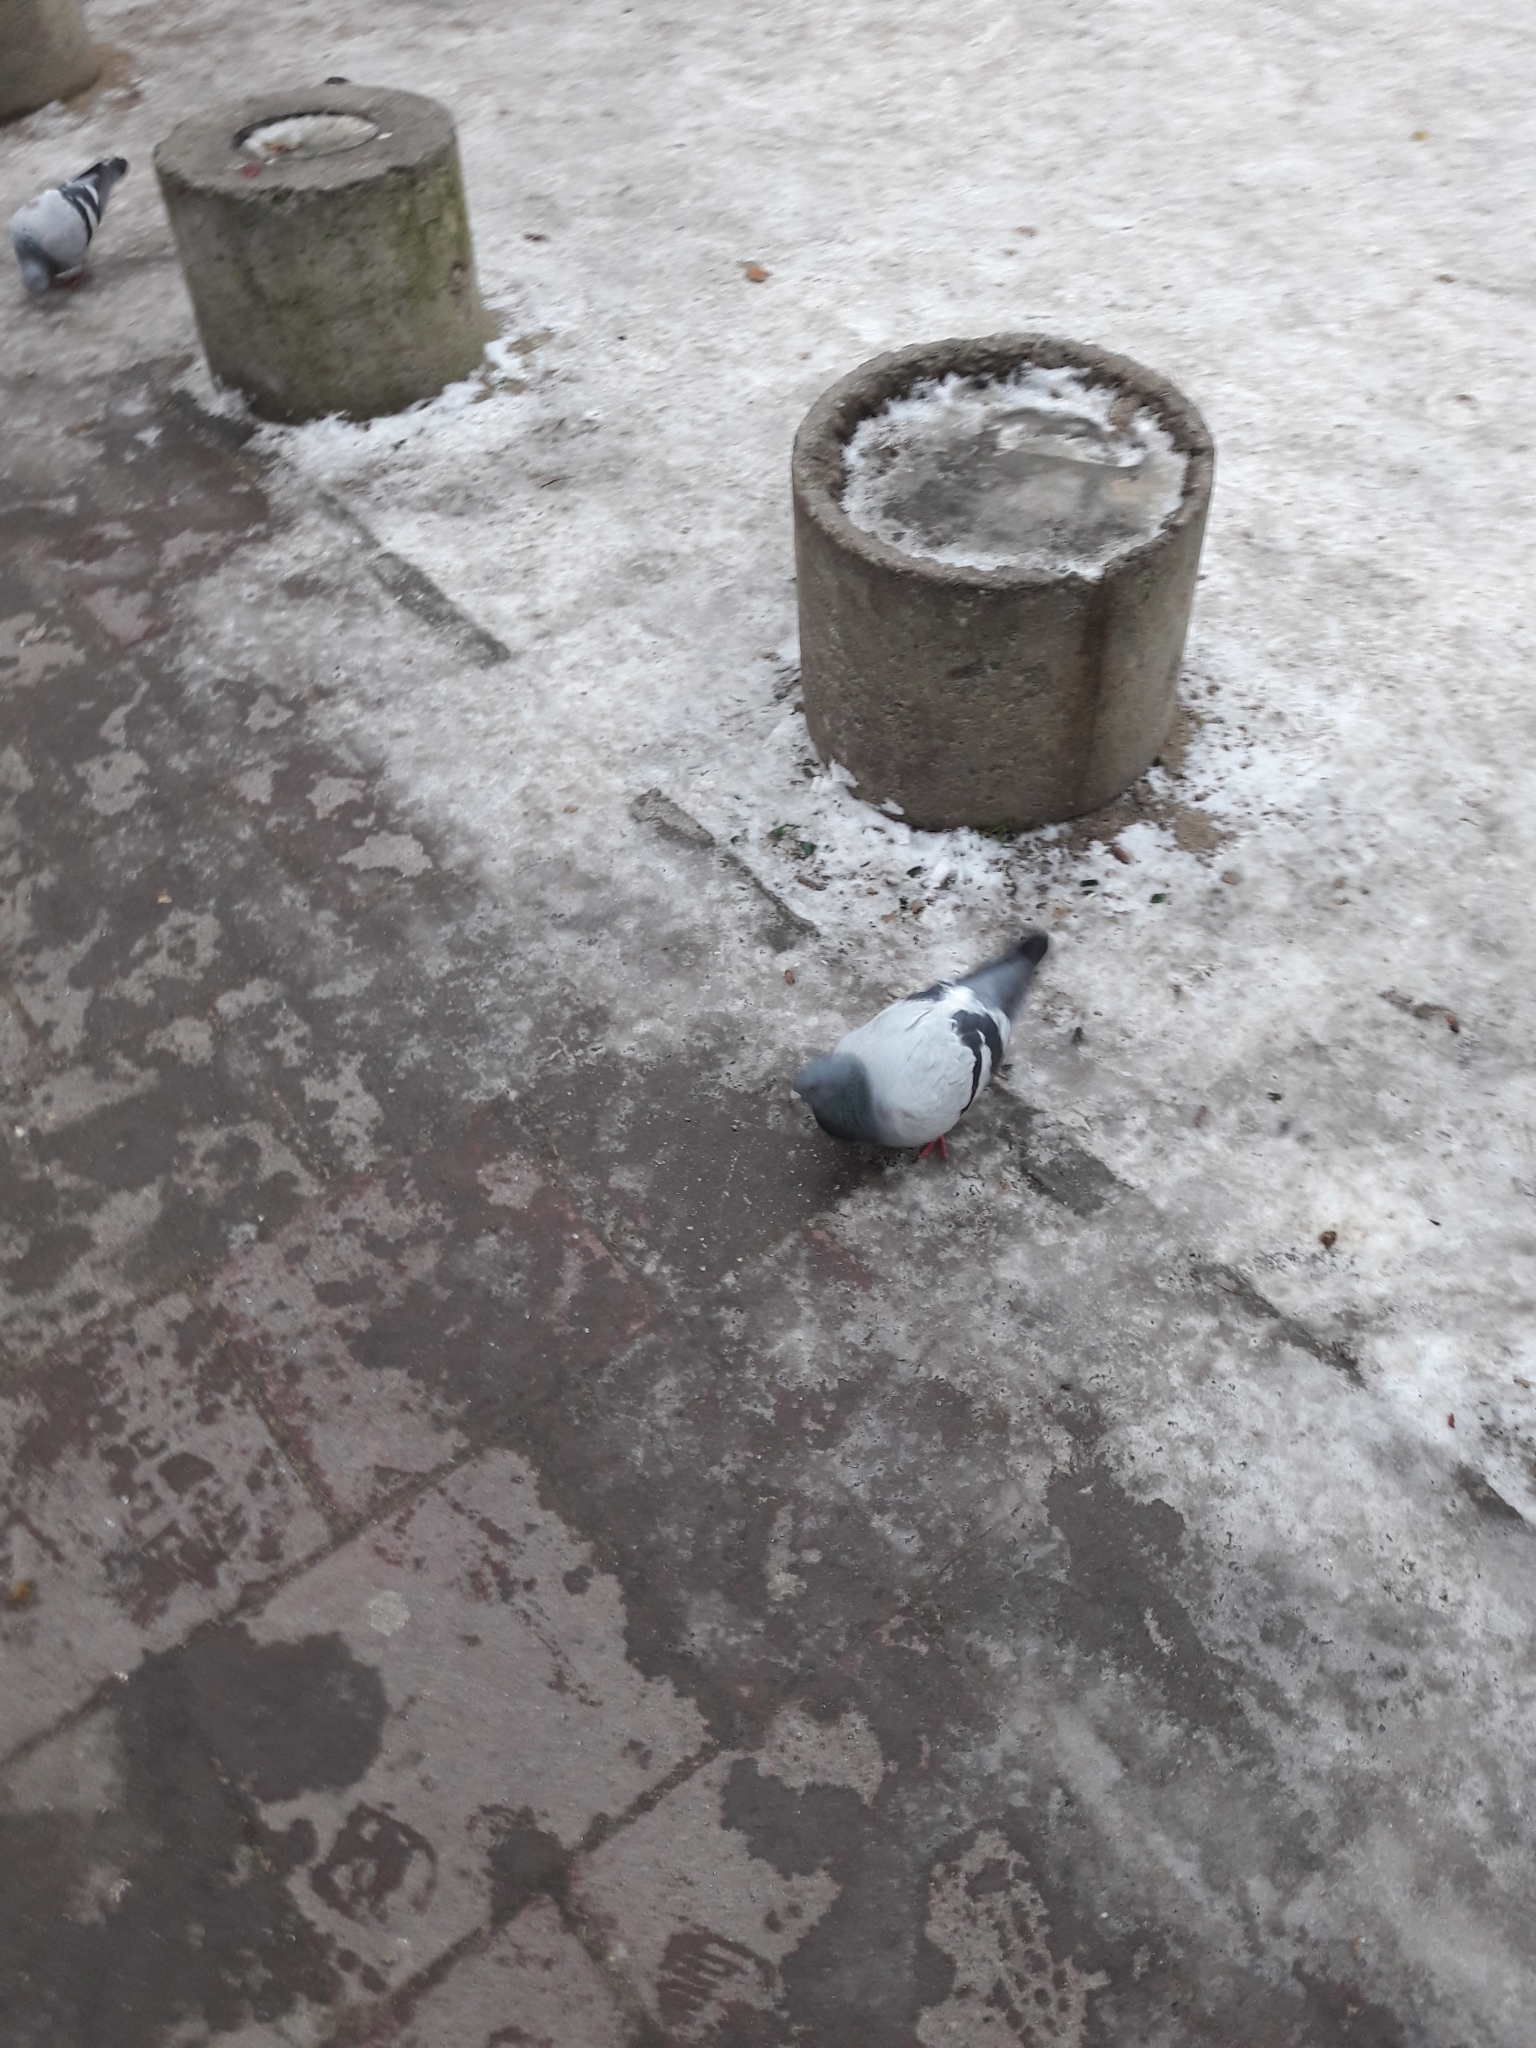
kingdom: Animalia
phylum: Chordata
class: Aves
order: Columbiformes
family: Columbidae
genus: Columba
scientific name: Columba livia
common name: Rock pigeon
